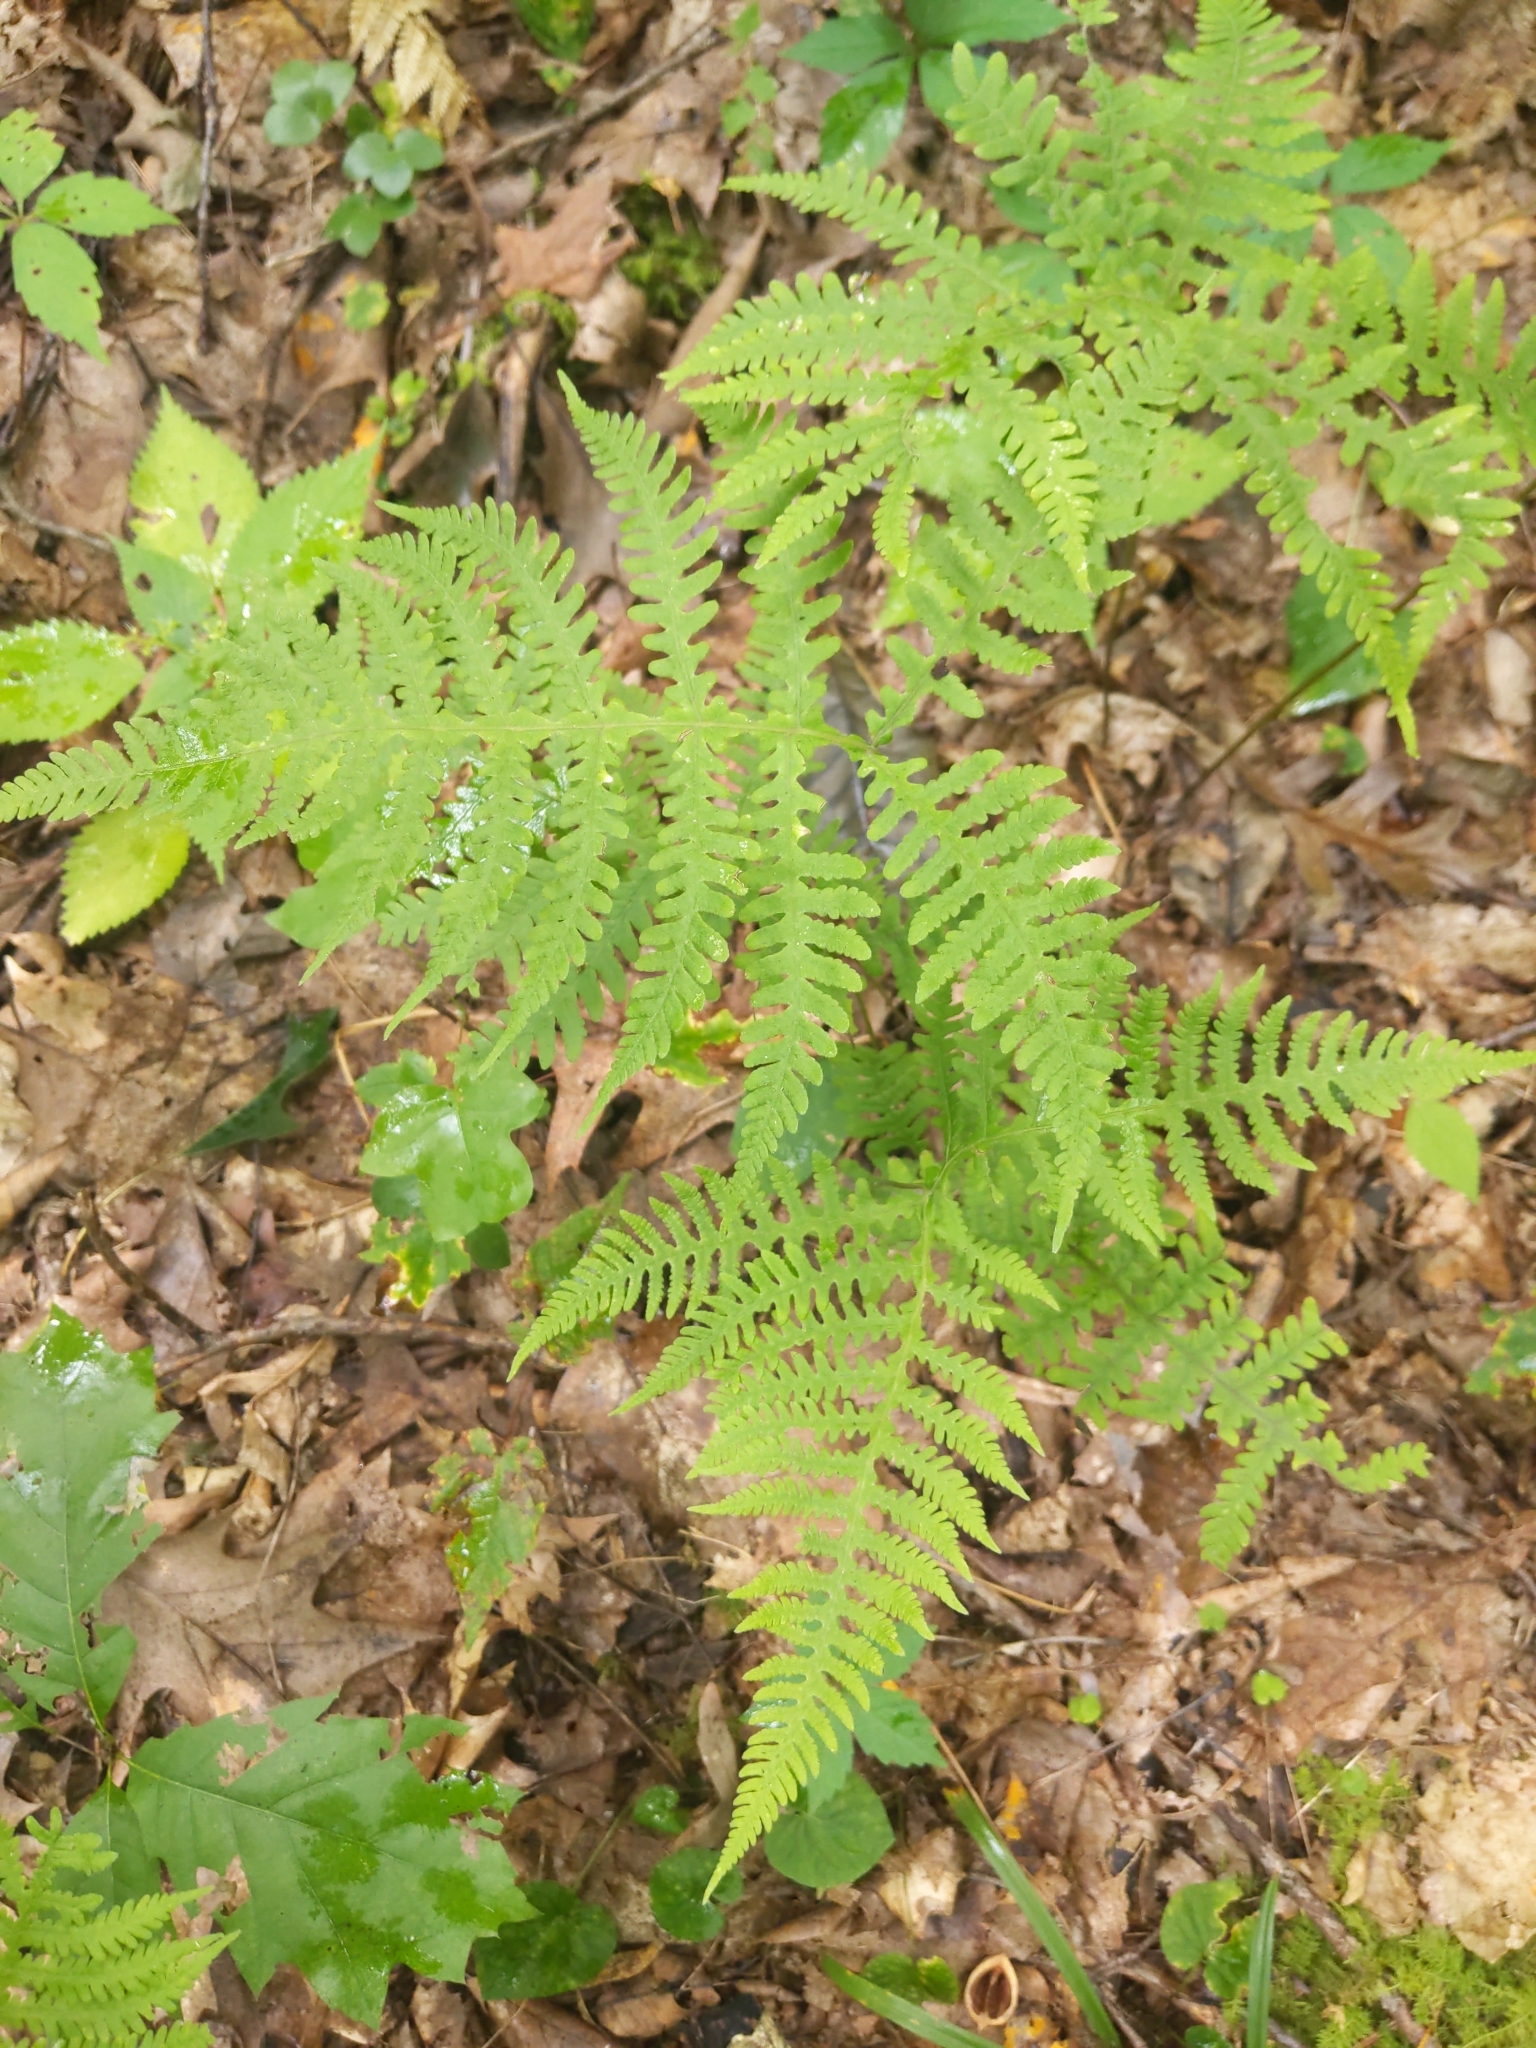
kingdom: Plantae
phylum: Tracheophyta
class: Polypodiopsida
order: Polypodiales
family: Thelypteridaceae
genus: Phegopteris
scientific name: Phegopteris hexagonoptera
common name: Broad beech fern
